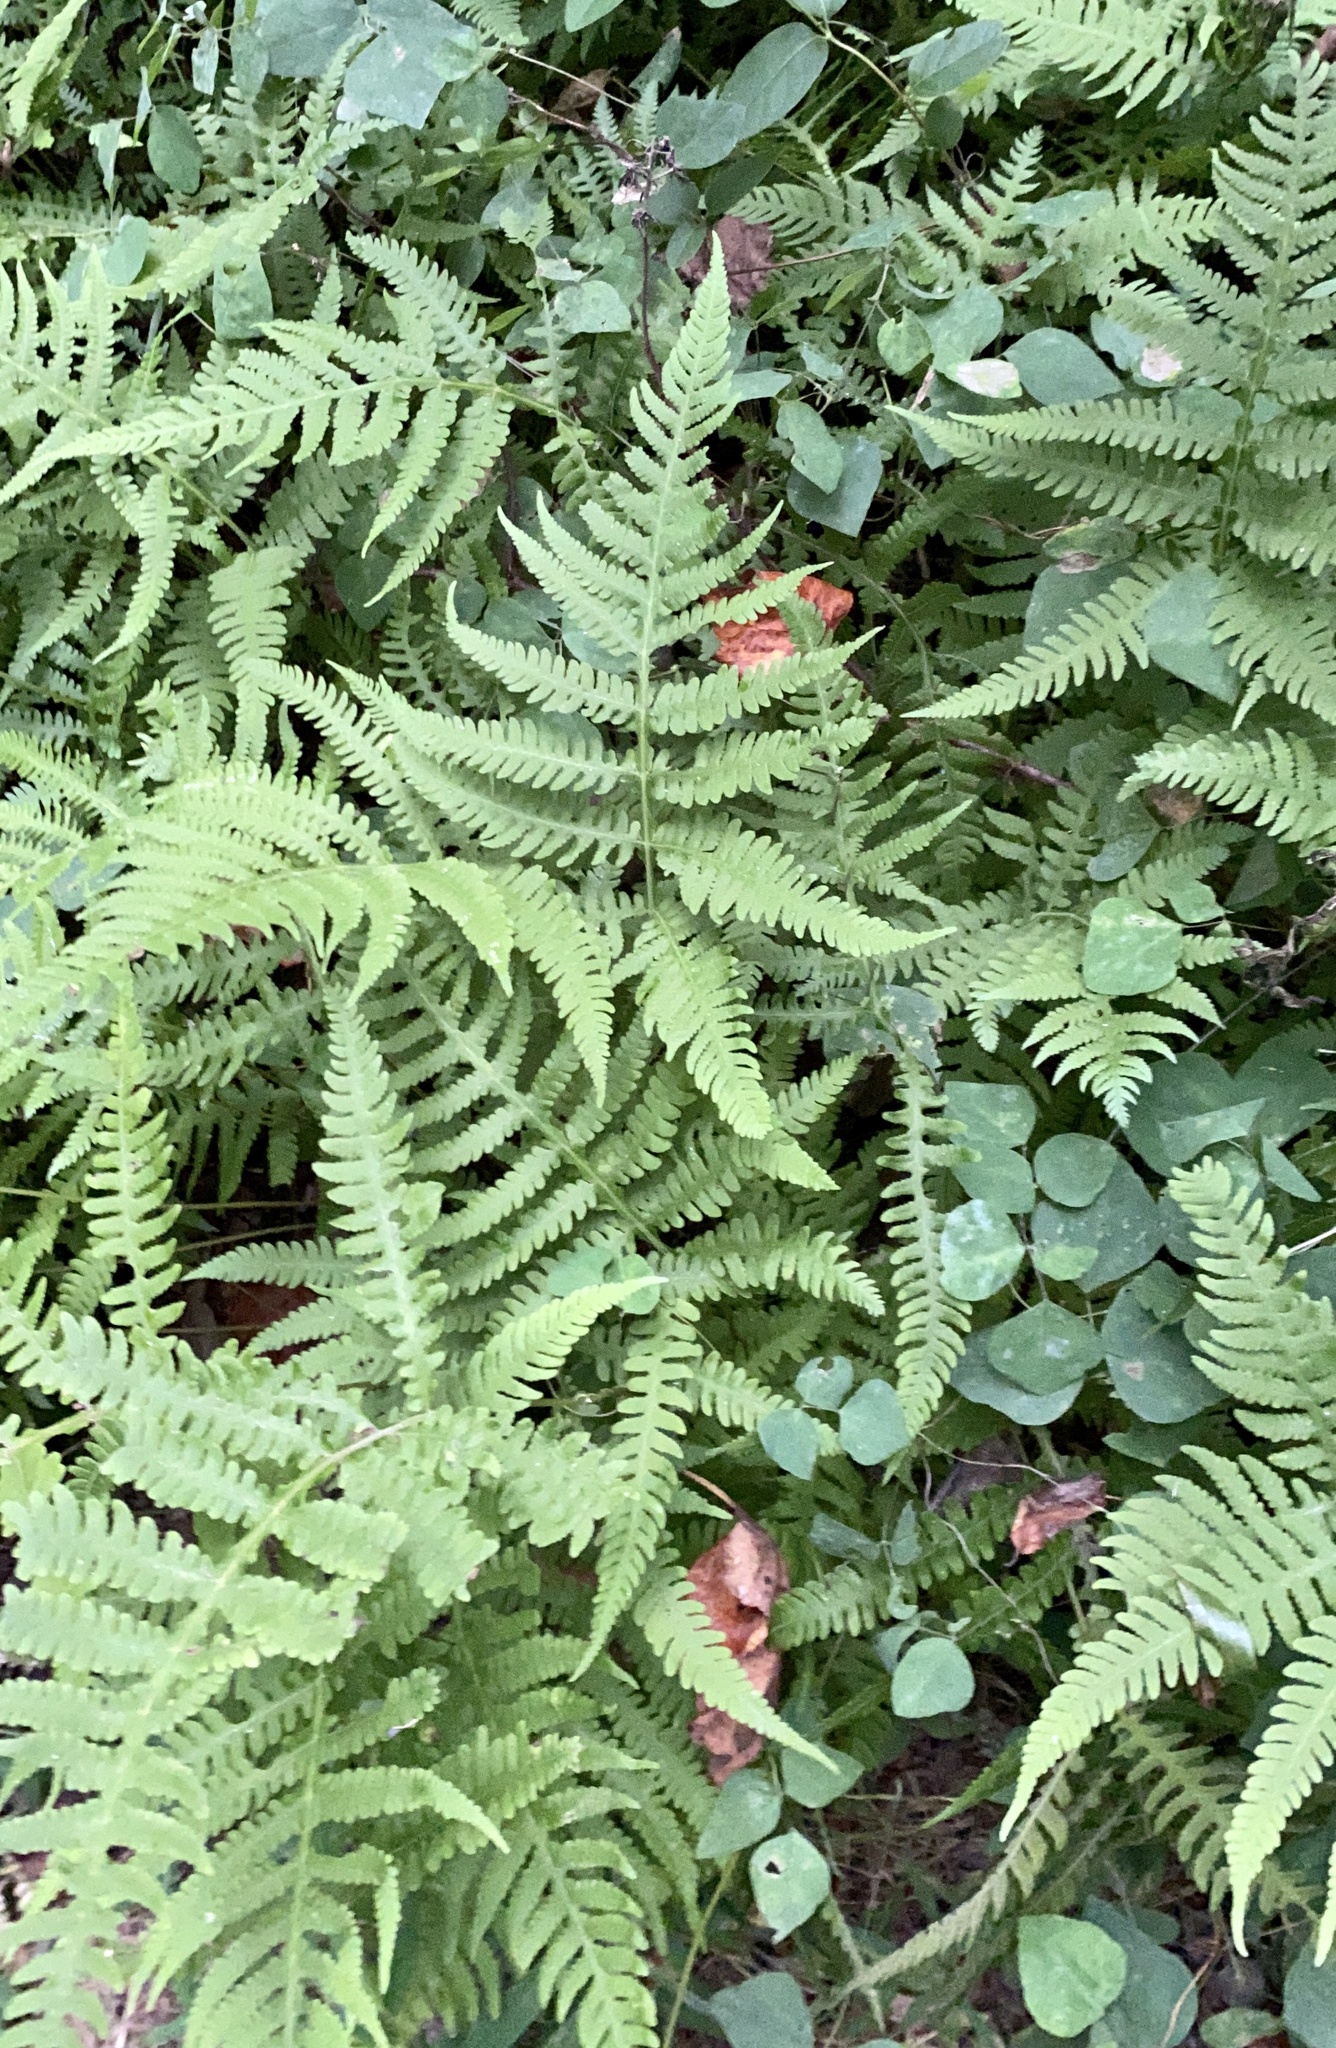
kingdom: Plantae
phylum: Tracheophyta
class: Polypodiopsida
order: Polypodiales
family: Thelypteridaceae
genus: Phegopteris
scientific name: Phegopteris hexagonoptera
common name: Broad beech fern
